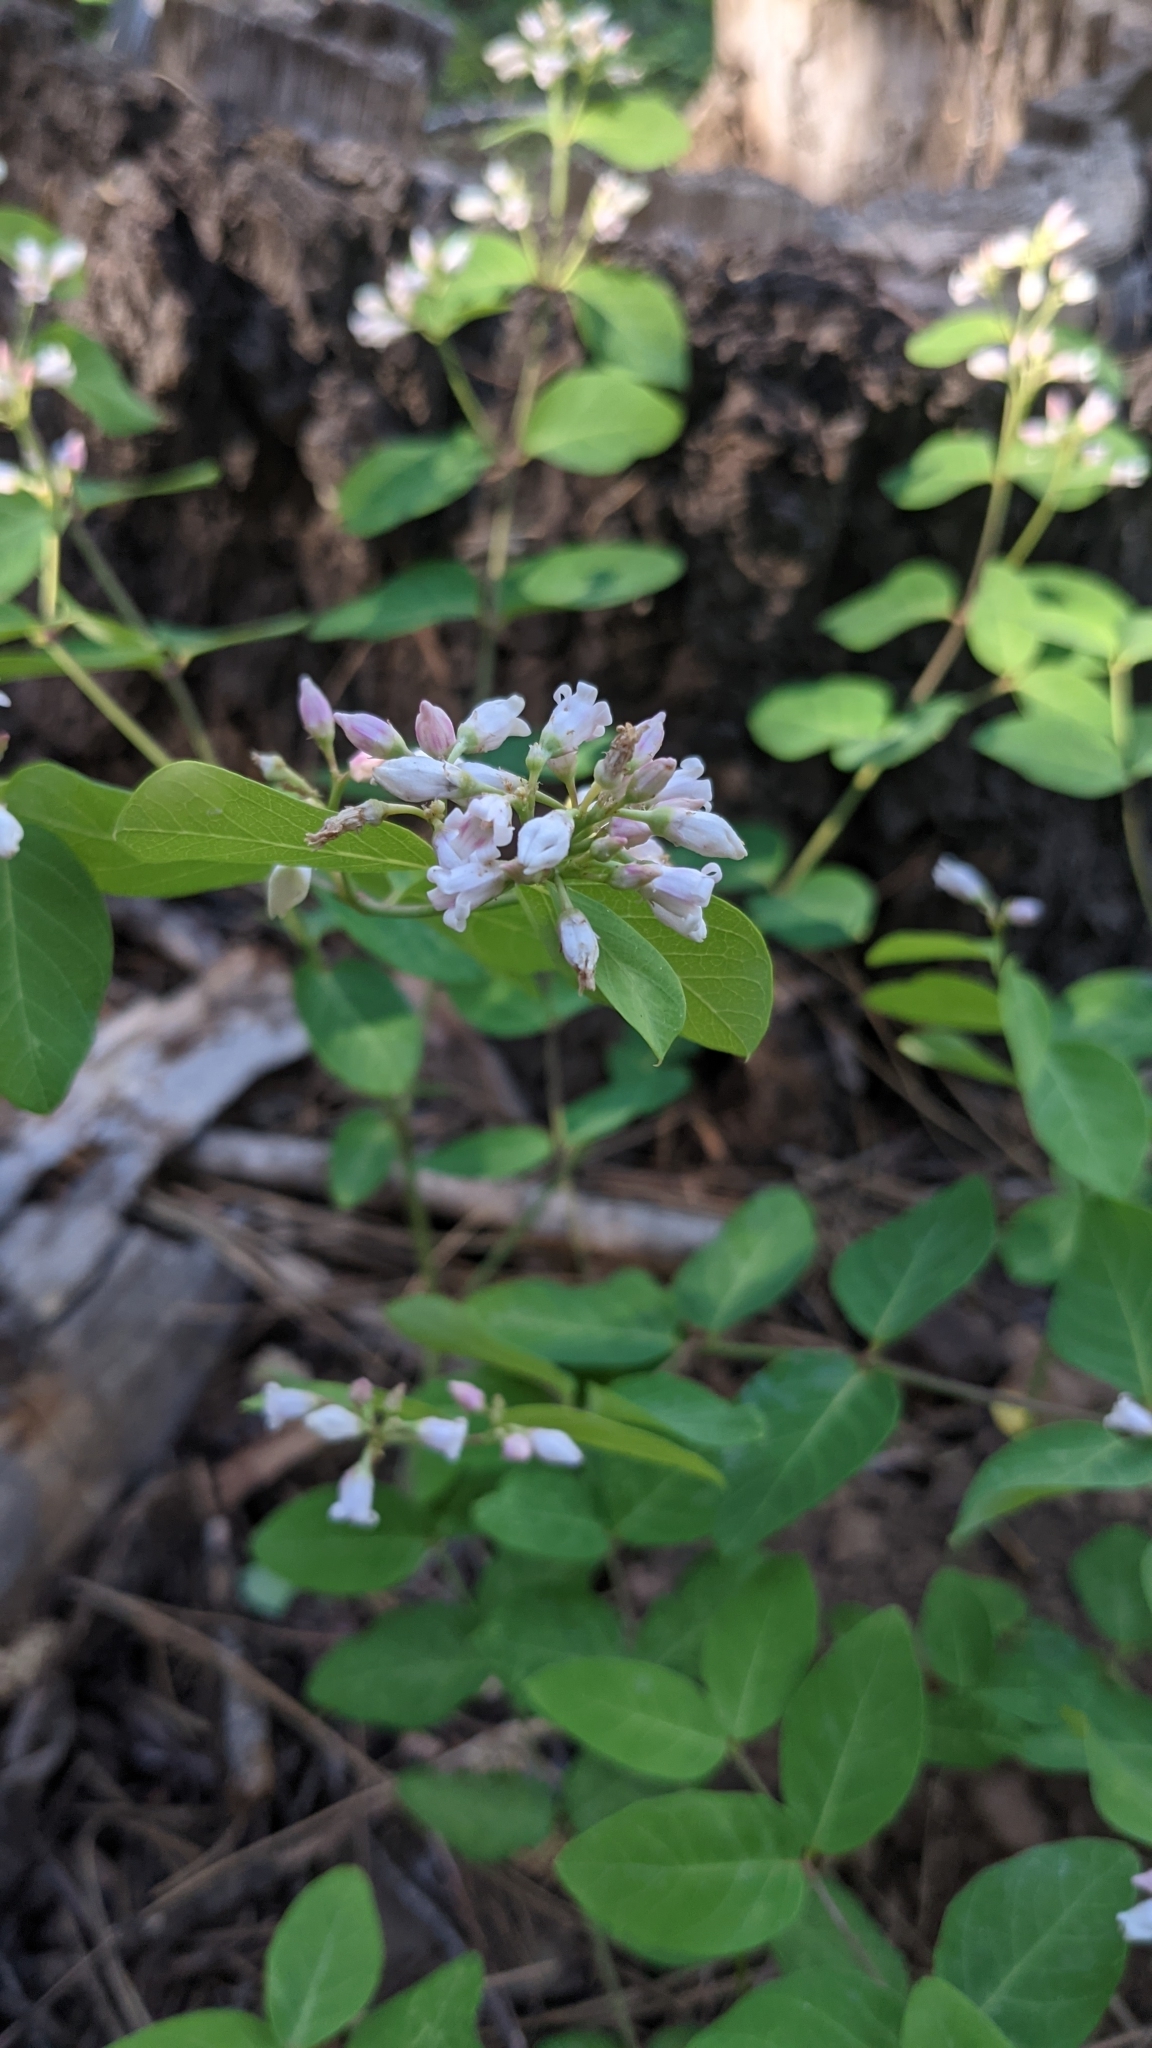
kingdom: Plantae
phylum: Tracheophyta
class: Magnoliopsida
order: Gentianales
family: Apocynaceae
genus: Apocynum
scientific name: Apocynum androsaemifolium
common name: Spreading dogbane
